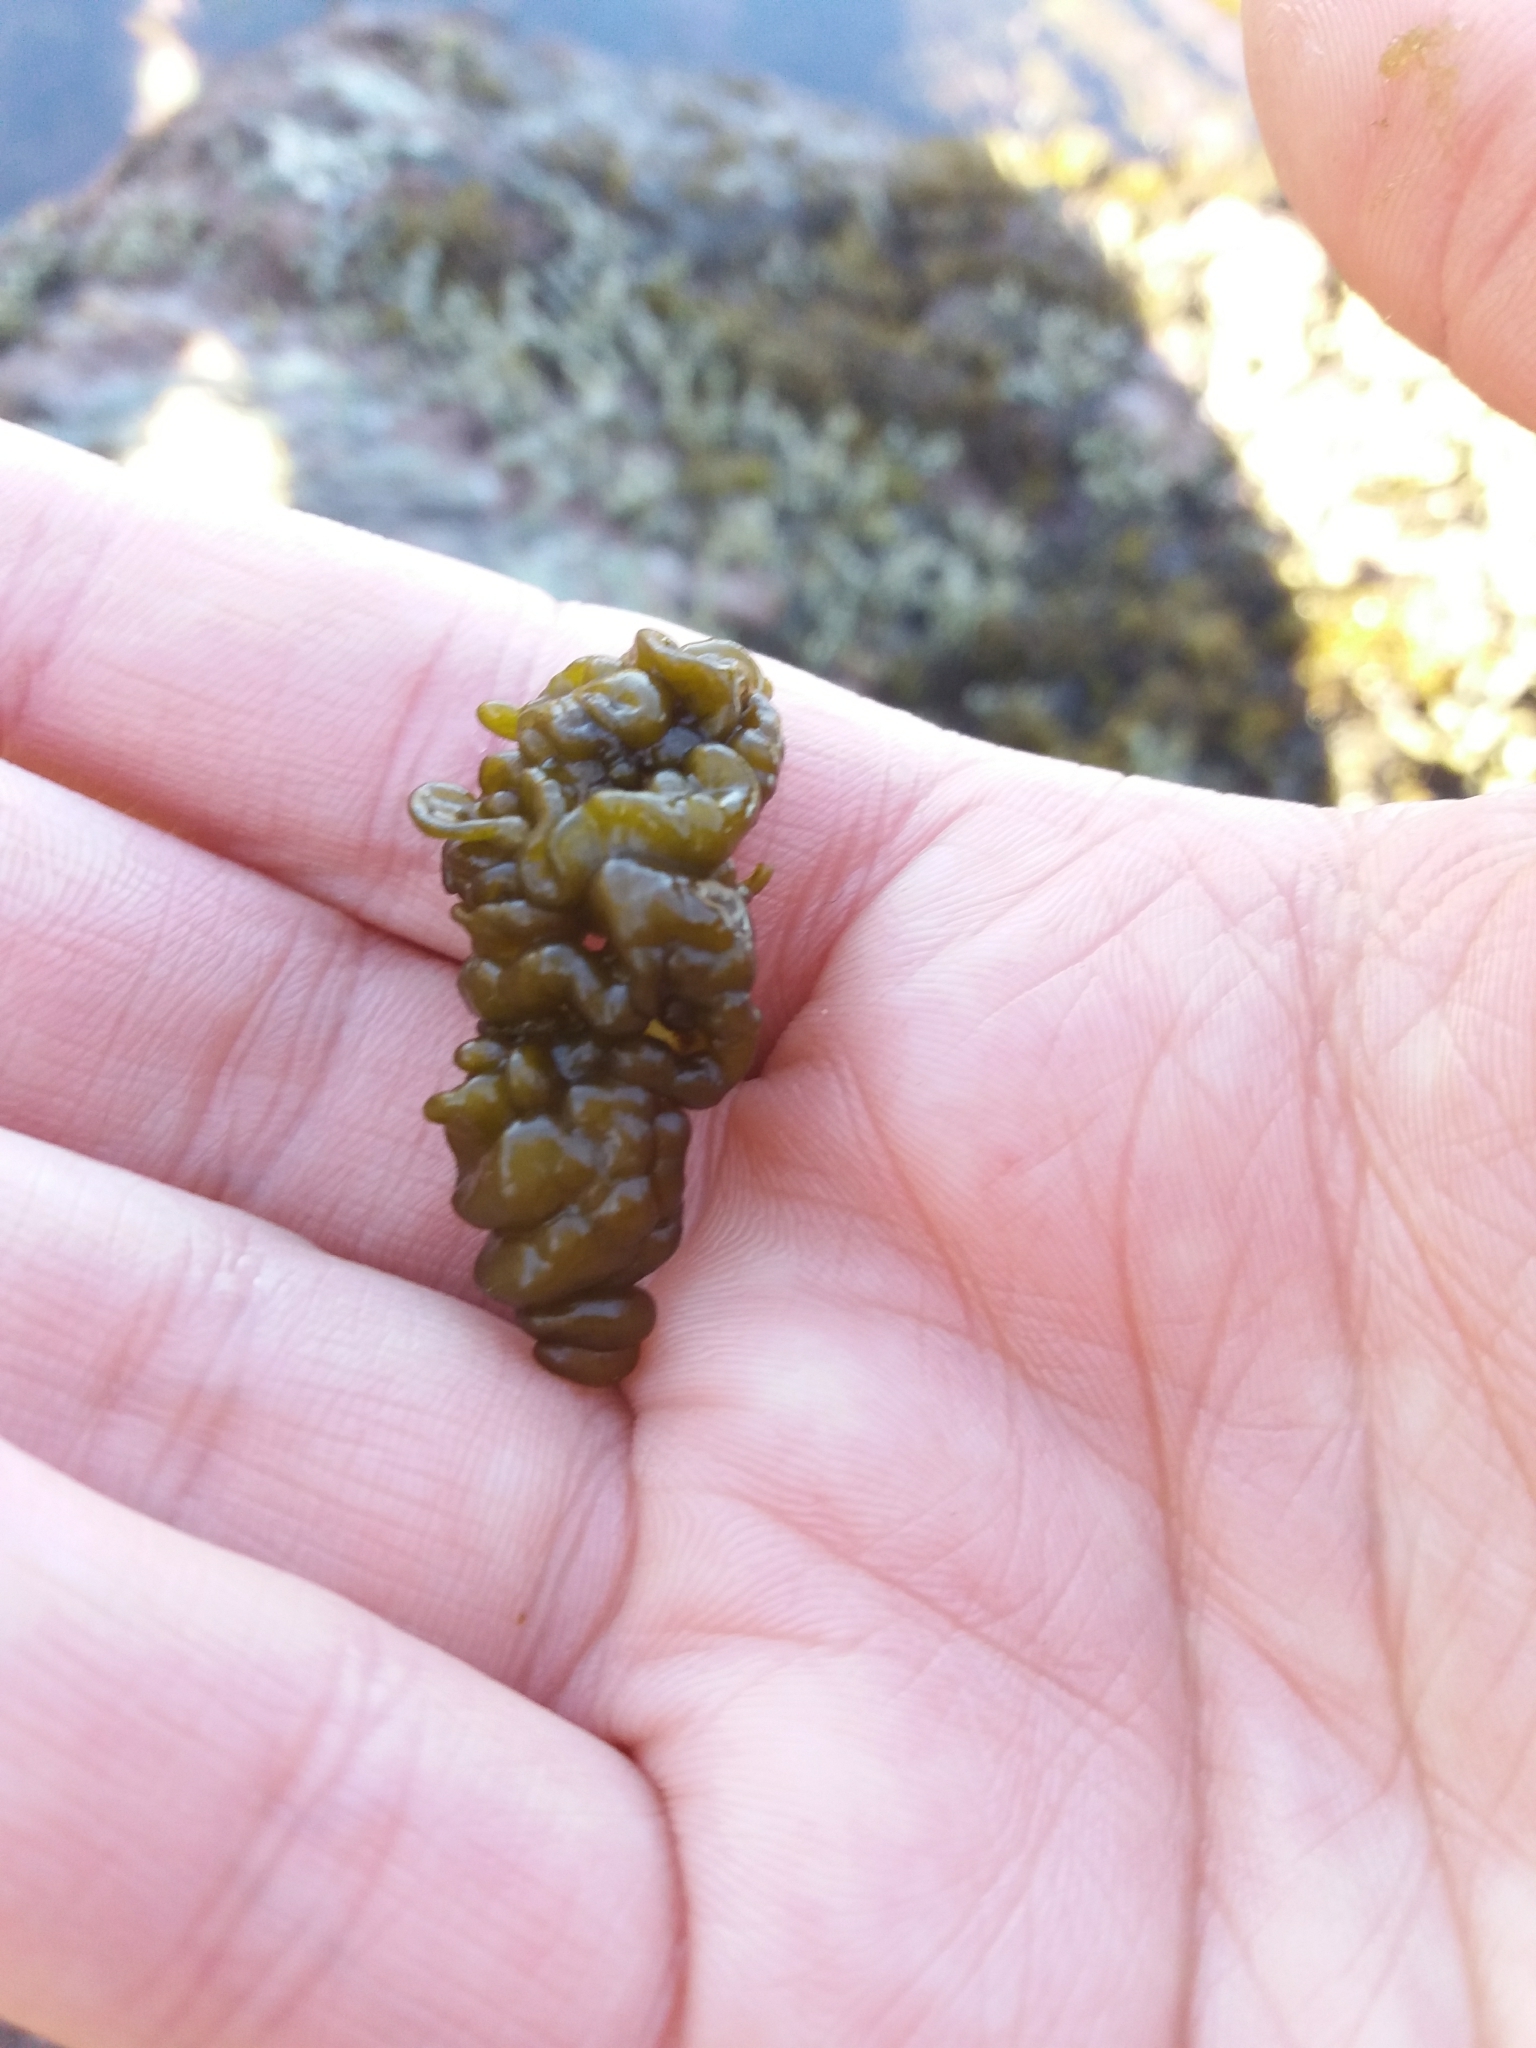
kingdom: Chromista
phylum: Ochrophyta
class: Phaeophyceae
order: Ectocarpales
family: Chordariaceae
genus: Leathesia
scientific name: Leathesia marina
